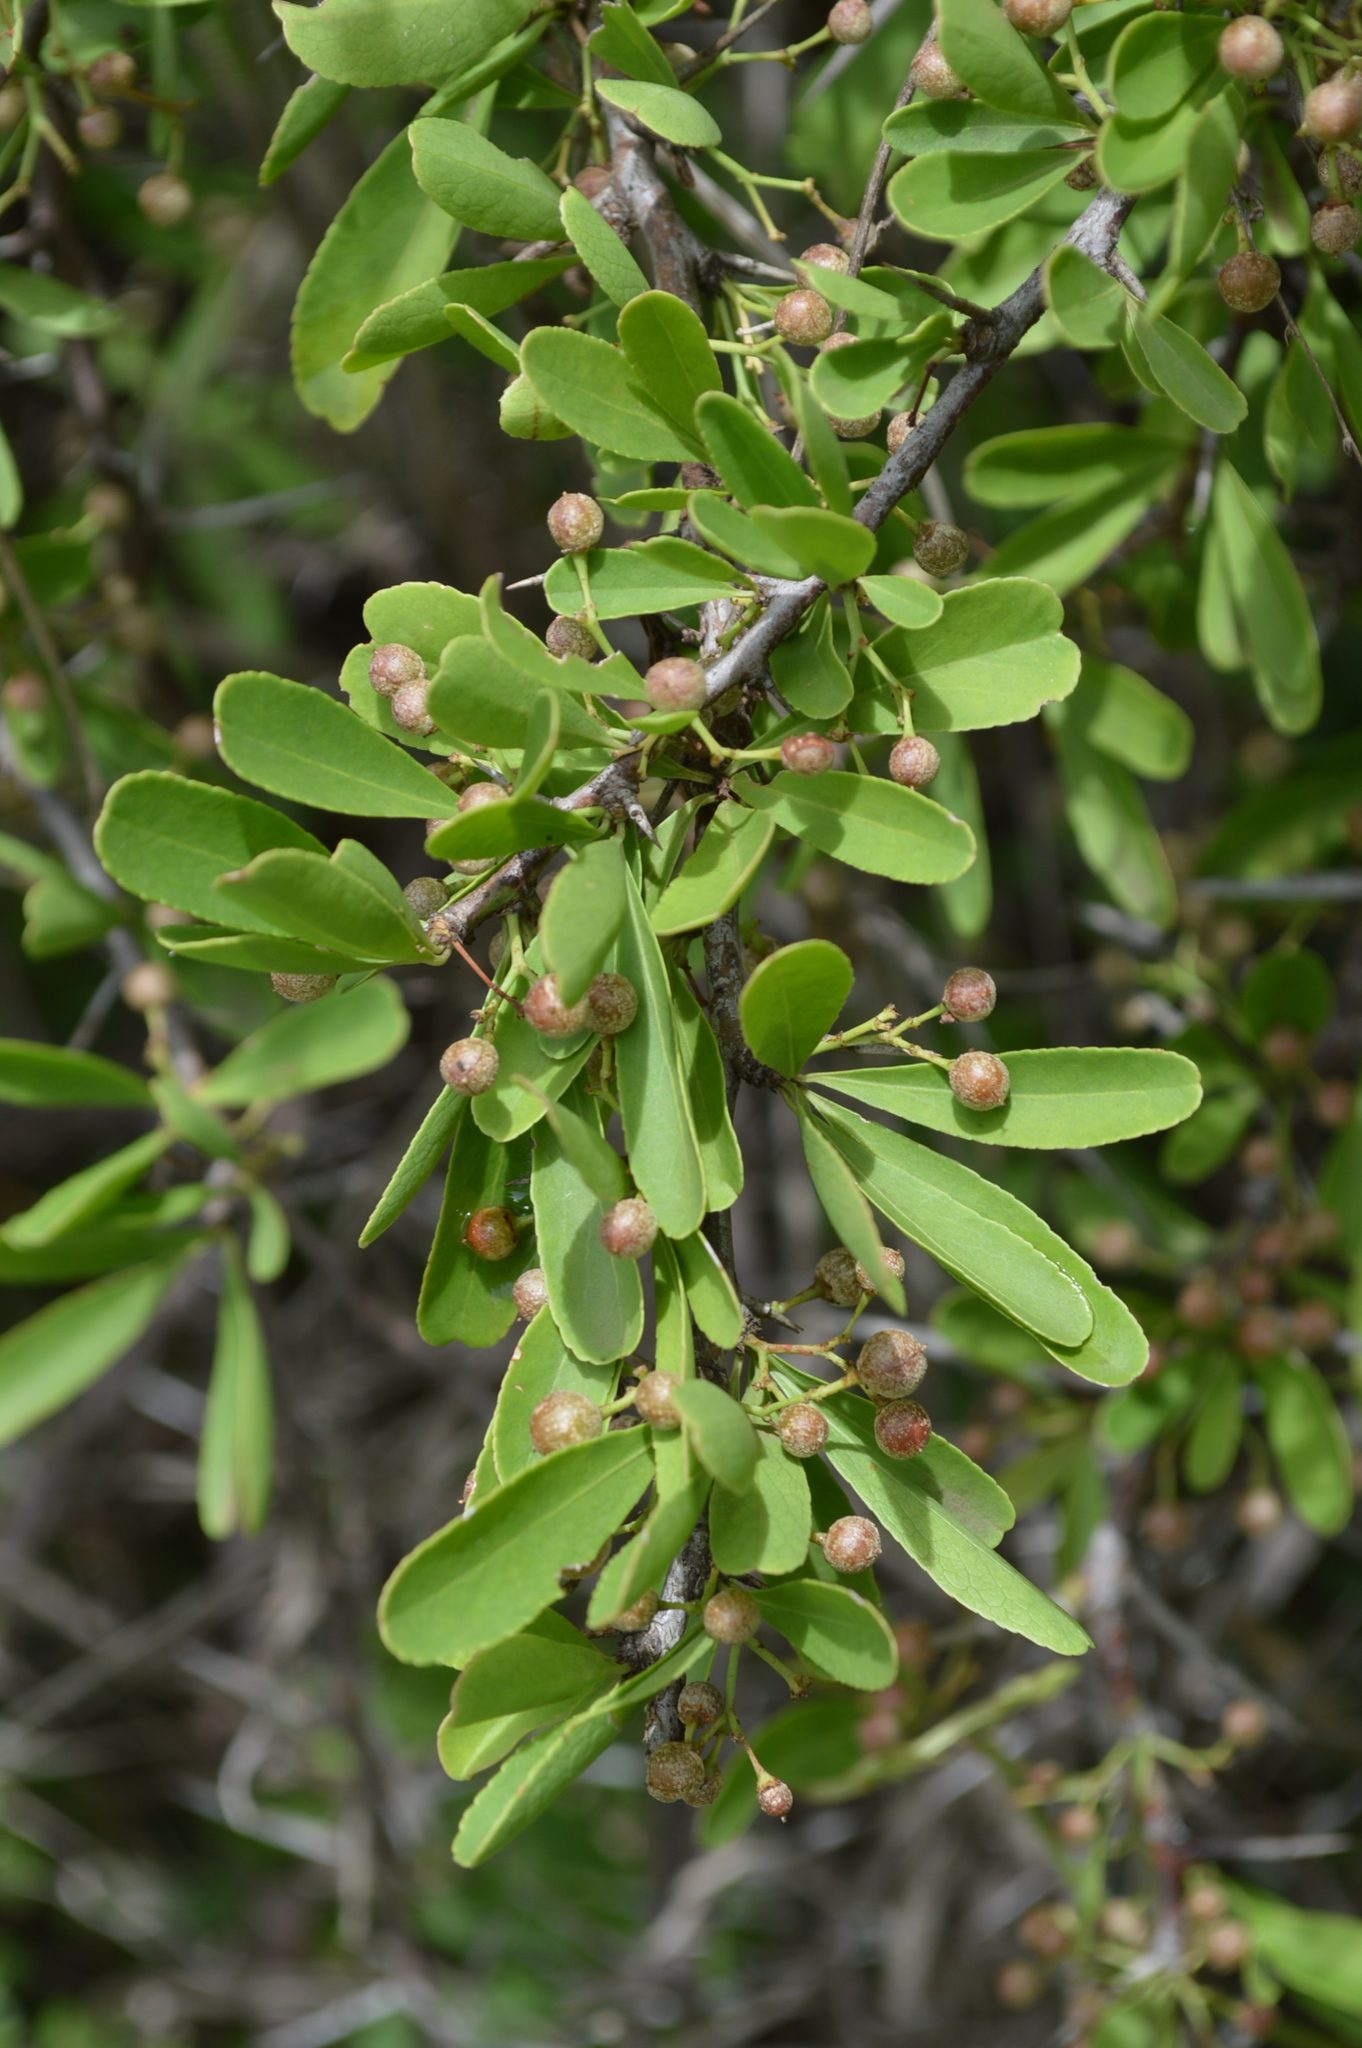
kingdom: Plantae
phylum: Tracheophyta
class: Magnoliopsida
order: Celastrales
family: Celastraceae
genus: Gymnosporia
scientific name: Gymnosporia buxifolia
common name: Common spike-thorn
